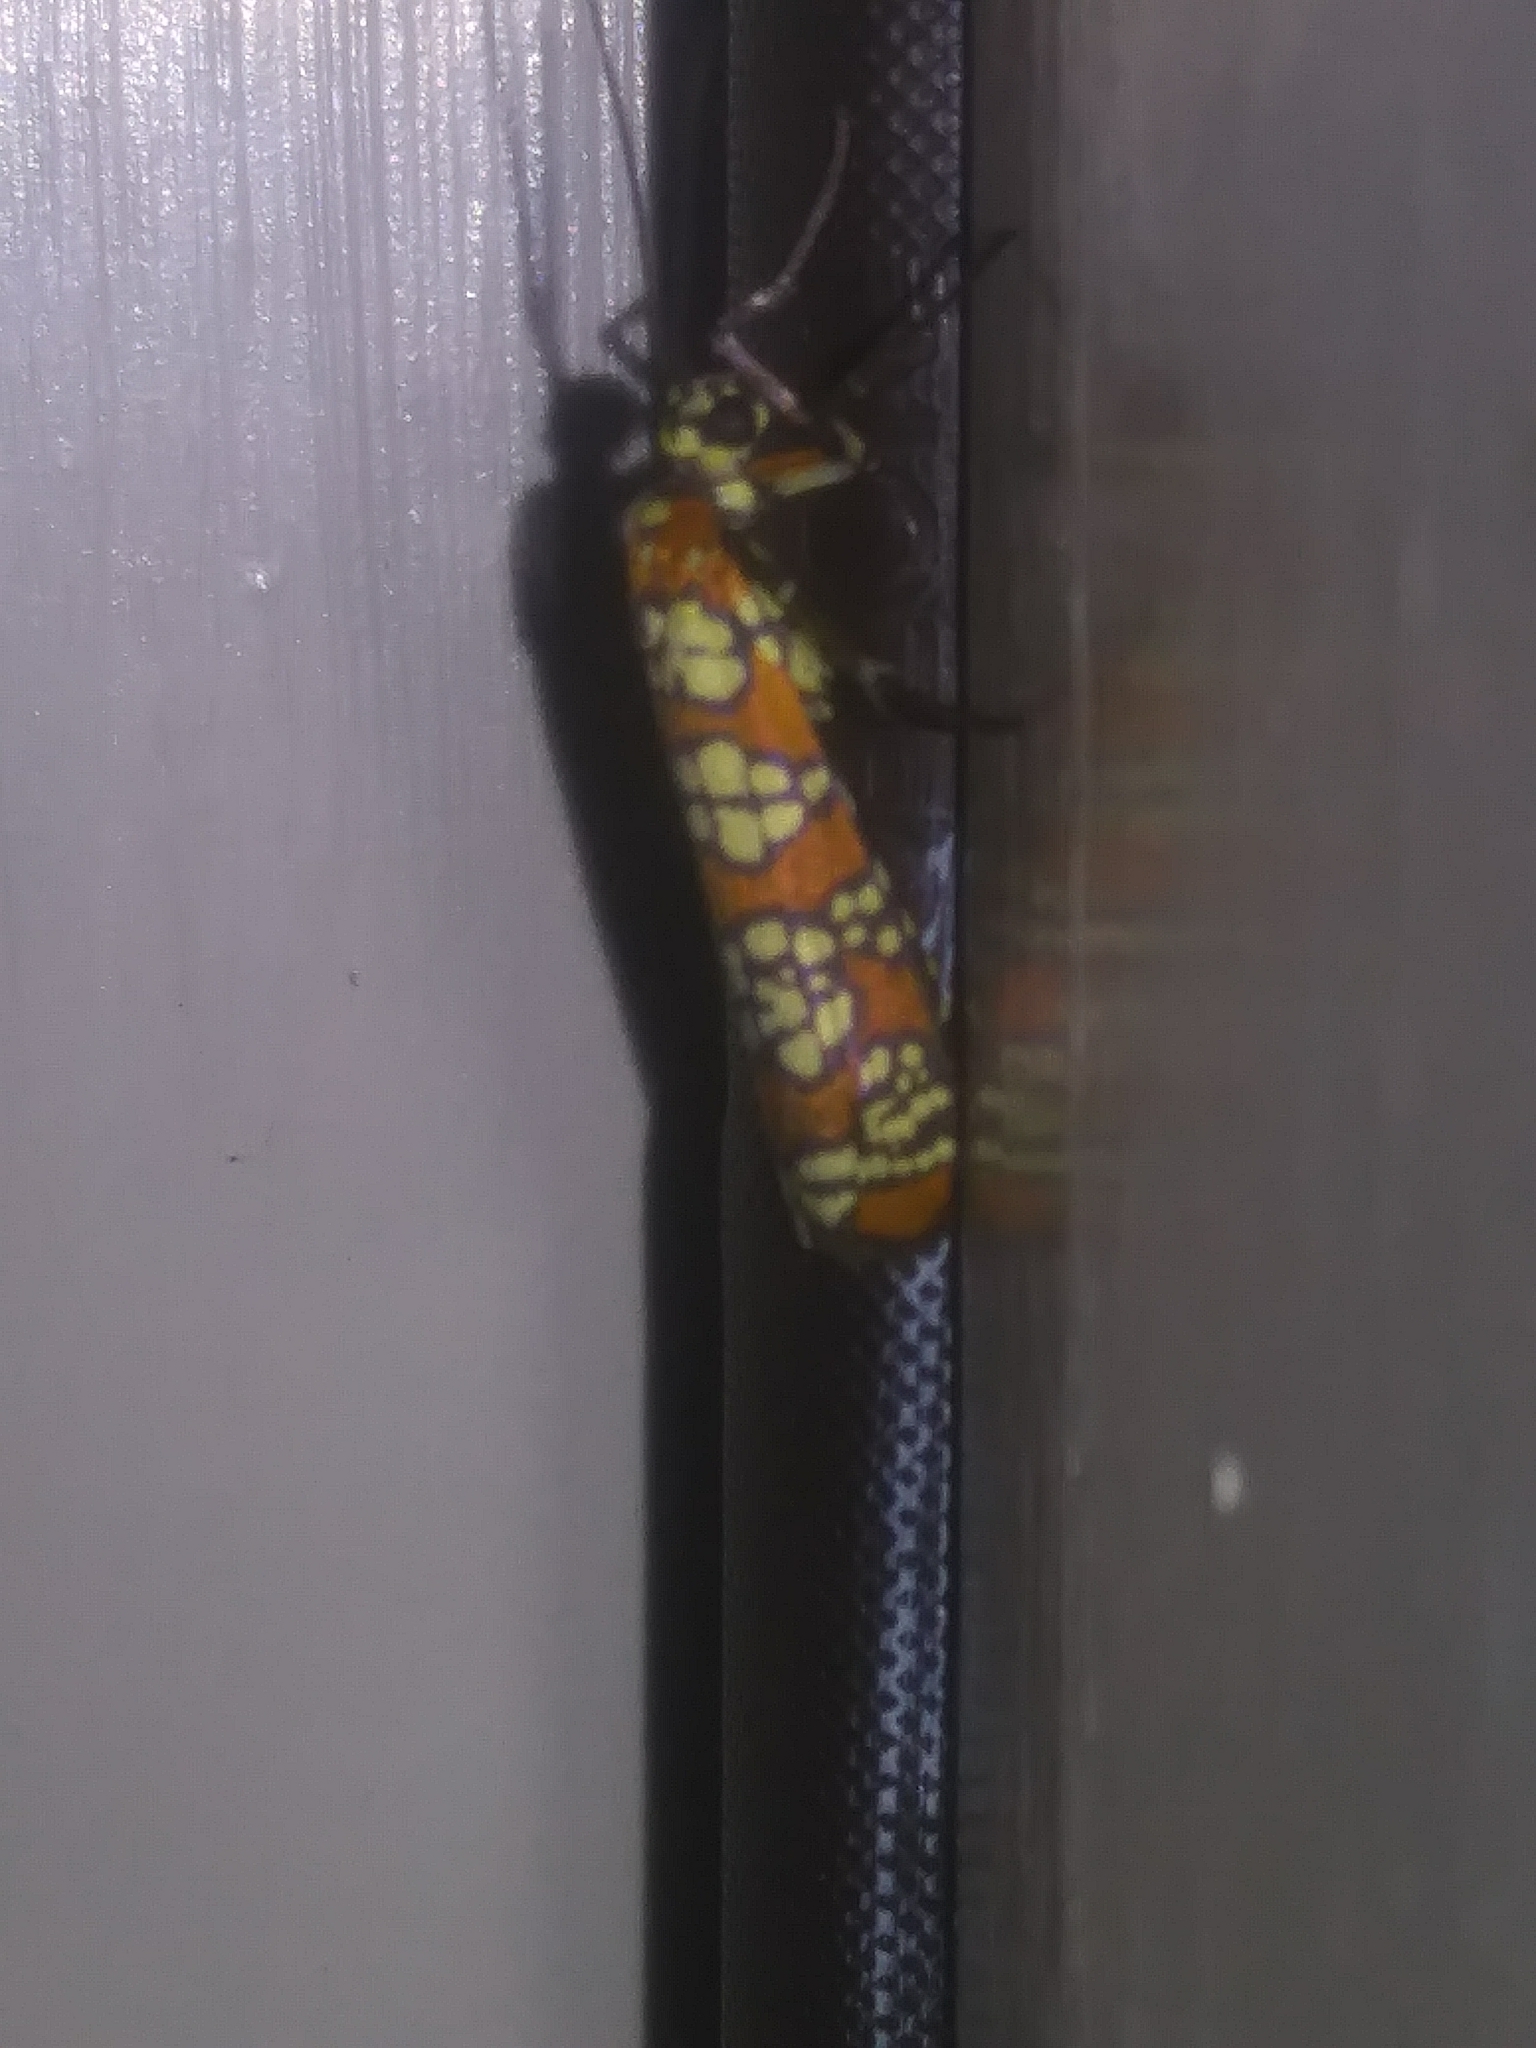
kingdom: Animalia
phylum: Arthropoda
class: Insecta
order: Lepidoptera
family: Attevidae
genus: Atteva
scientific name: Atteva punctella
